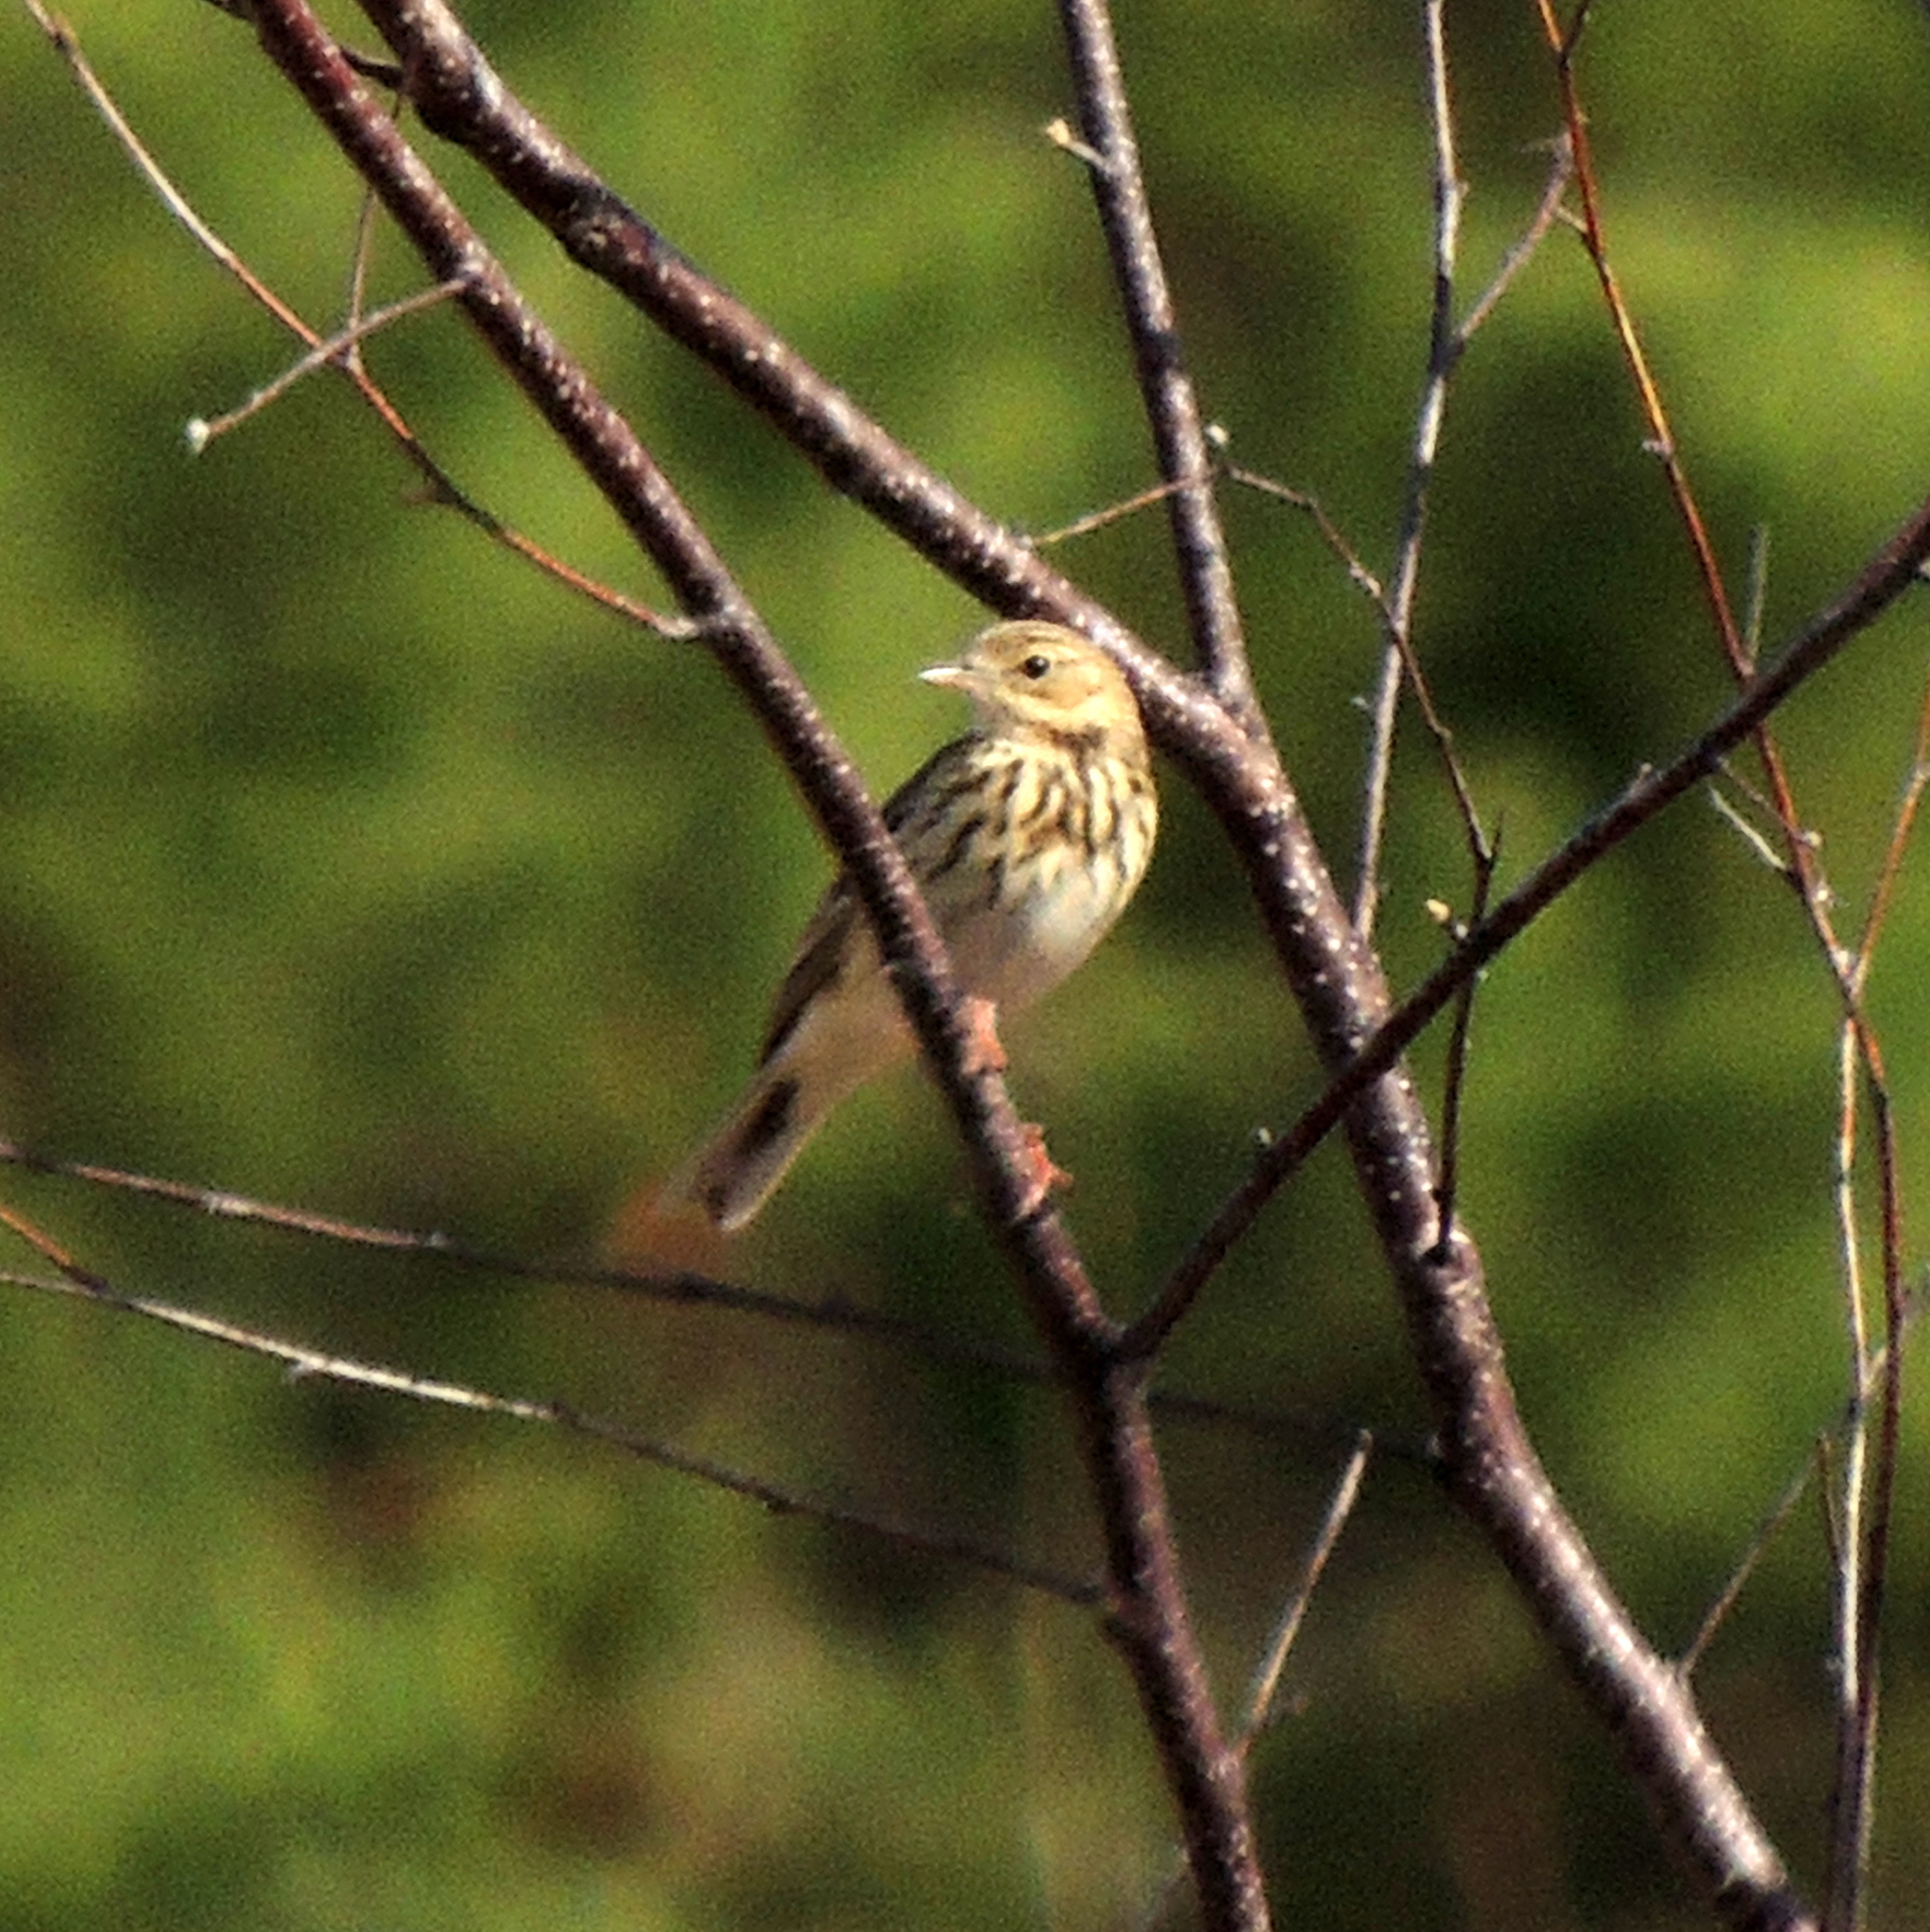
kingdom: Animalia
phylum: Chordata
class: Aves
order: Passeriformes
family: Motacillidae
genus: Anthus
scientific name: Anthus trivialis
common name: Tree pipit
